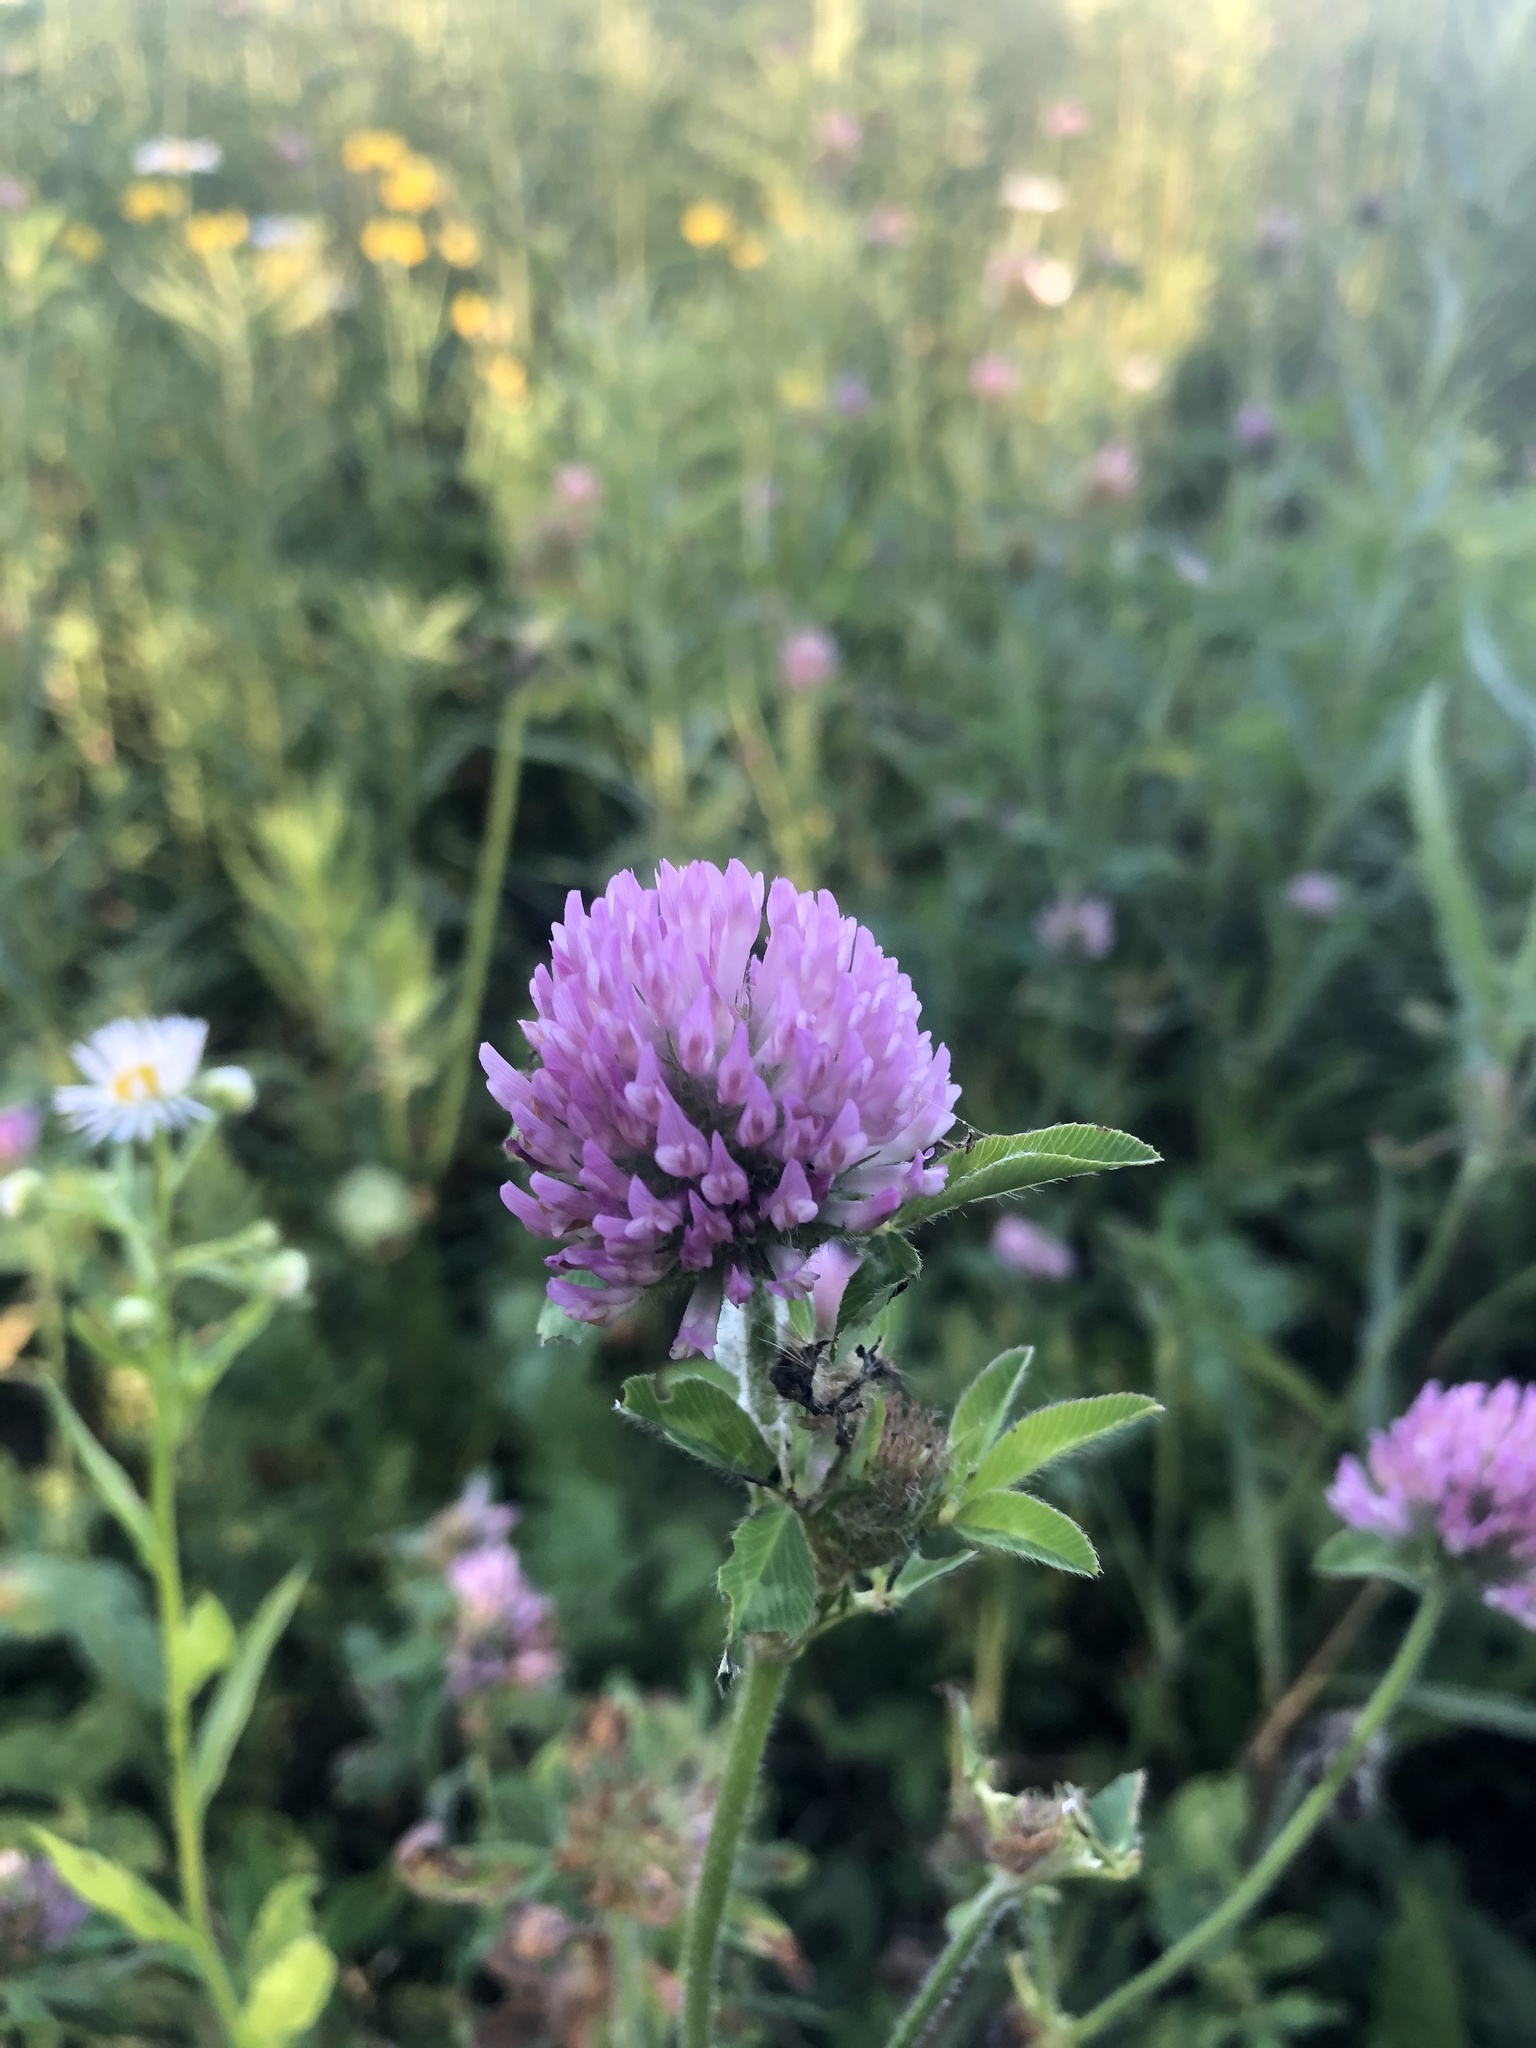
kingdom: Plantae
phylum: Tracheophyta
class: Magnoliopsida
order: Fabales
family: Fabaceae
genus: Trifolium
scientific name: Trifolium pratense
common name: Red clover
